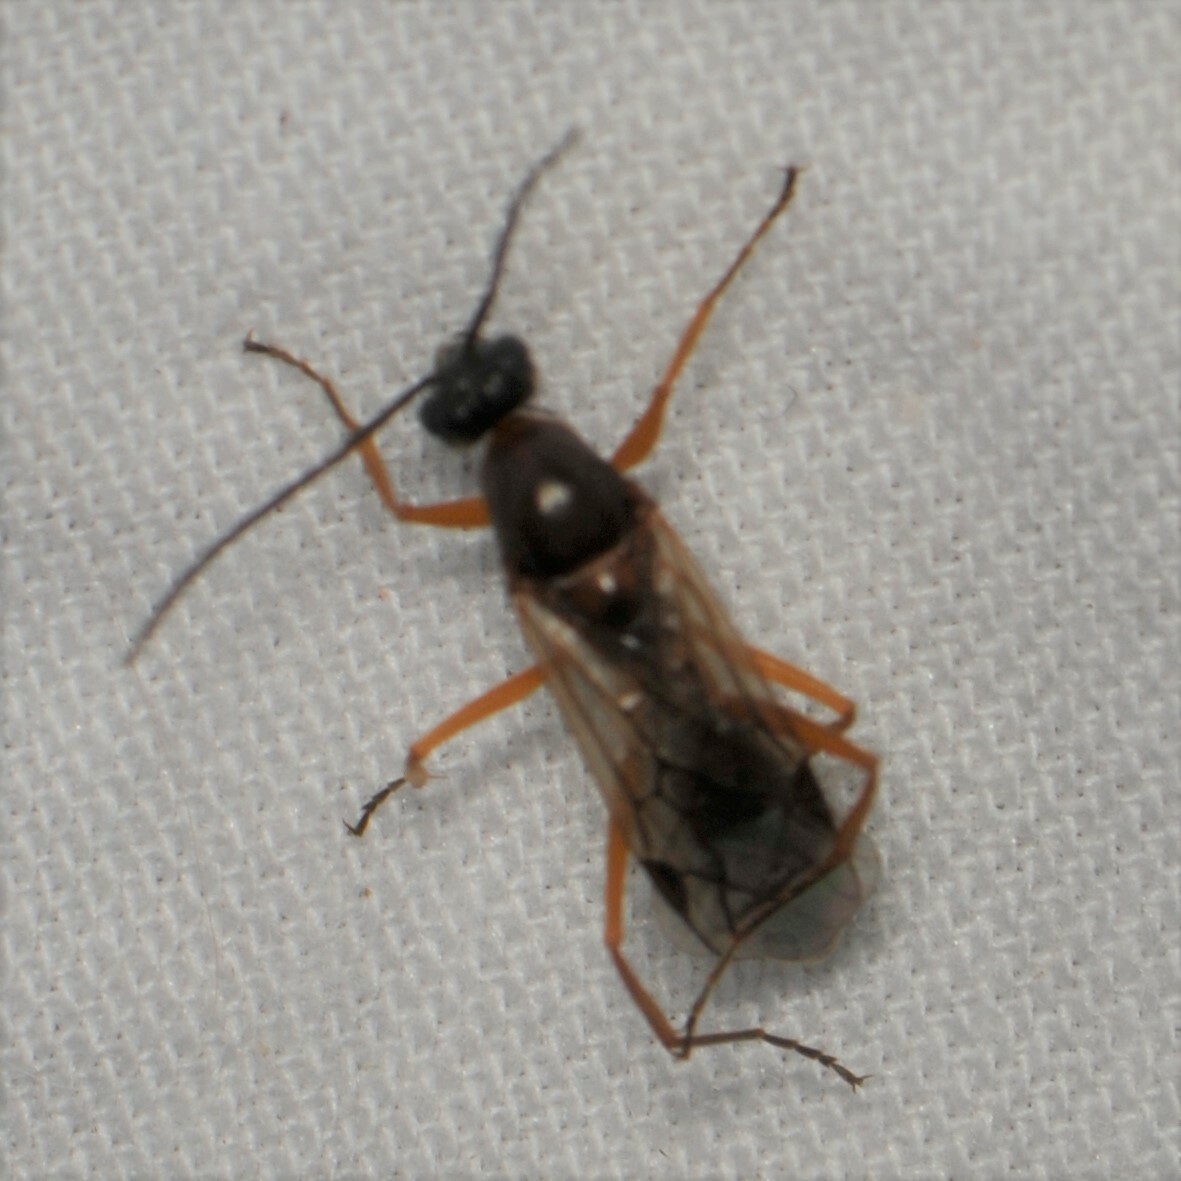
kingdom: Animalia
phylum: Arthropoda
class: Insecta
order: Hymenoptera
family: Formicidae
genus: Formica
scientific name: Formica
